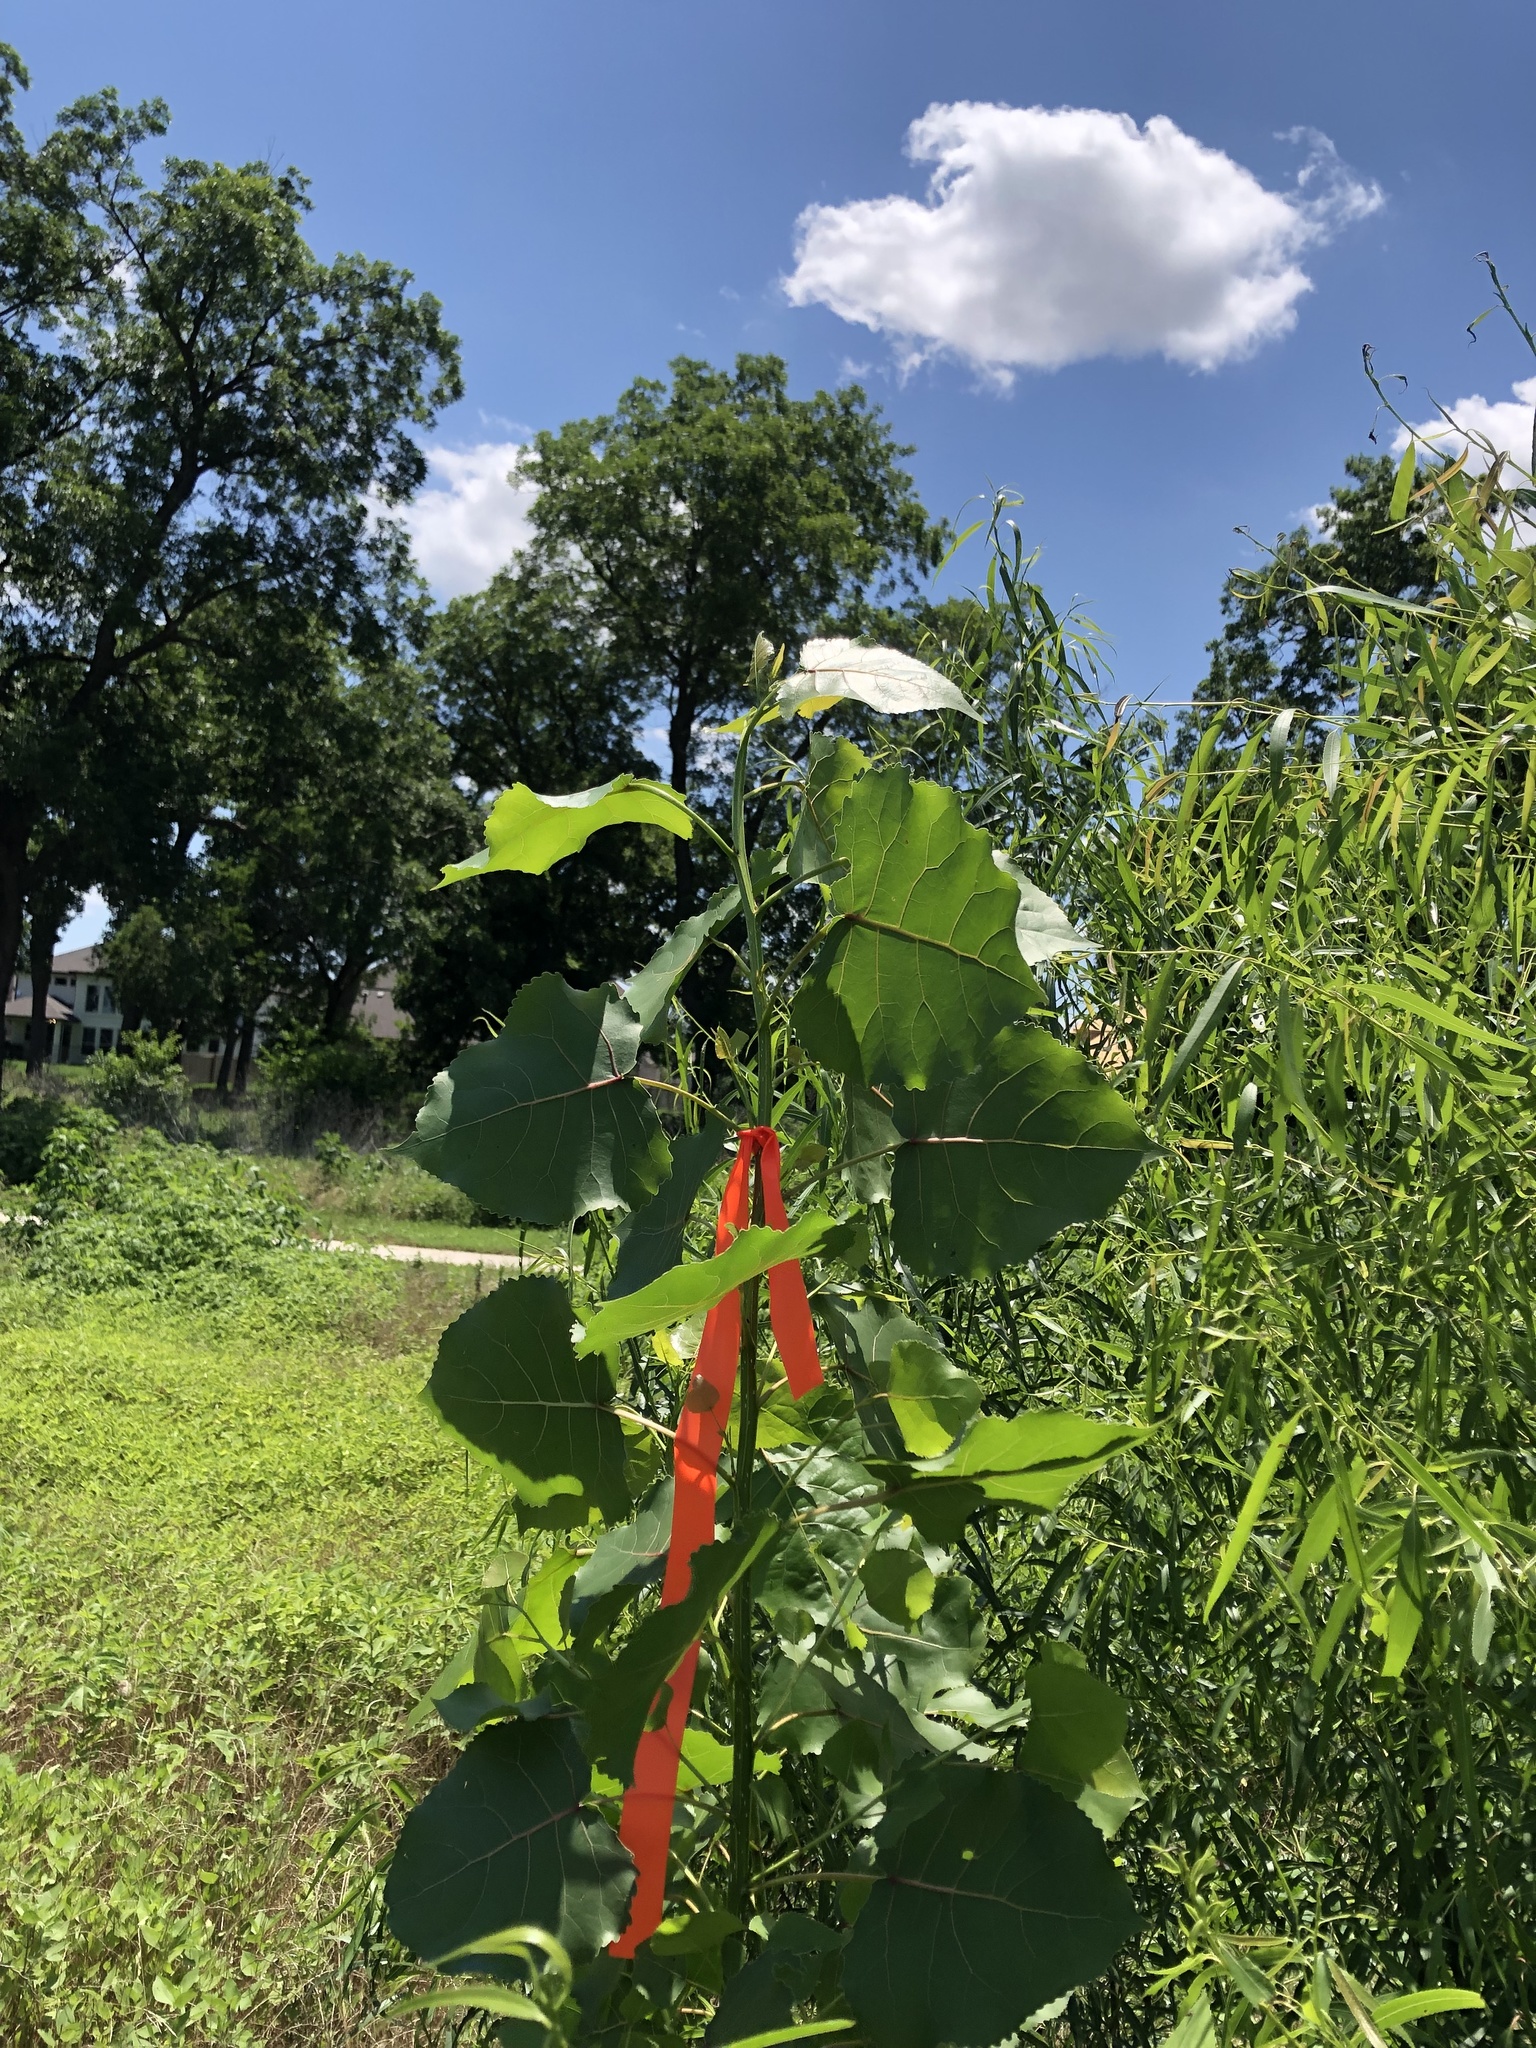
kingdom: Plantae
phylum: Tracheophyta
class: Magnoliopsida
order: Malpighiales
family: Salicaceae
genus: Populus
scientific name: Populus deltoides
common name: Eastern cottonwood
